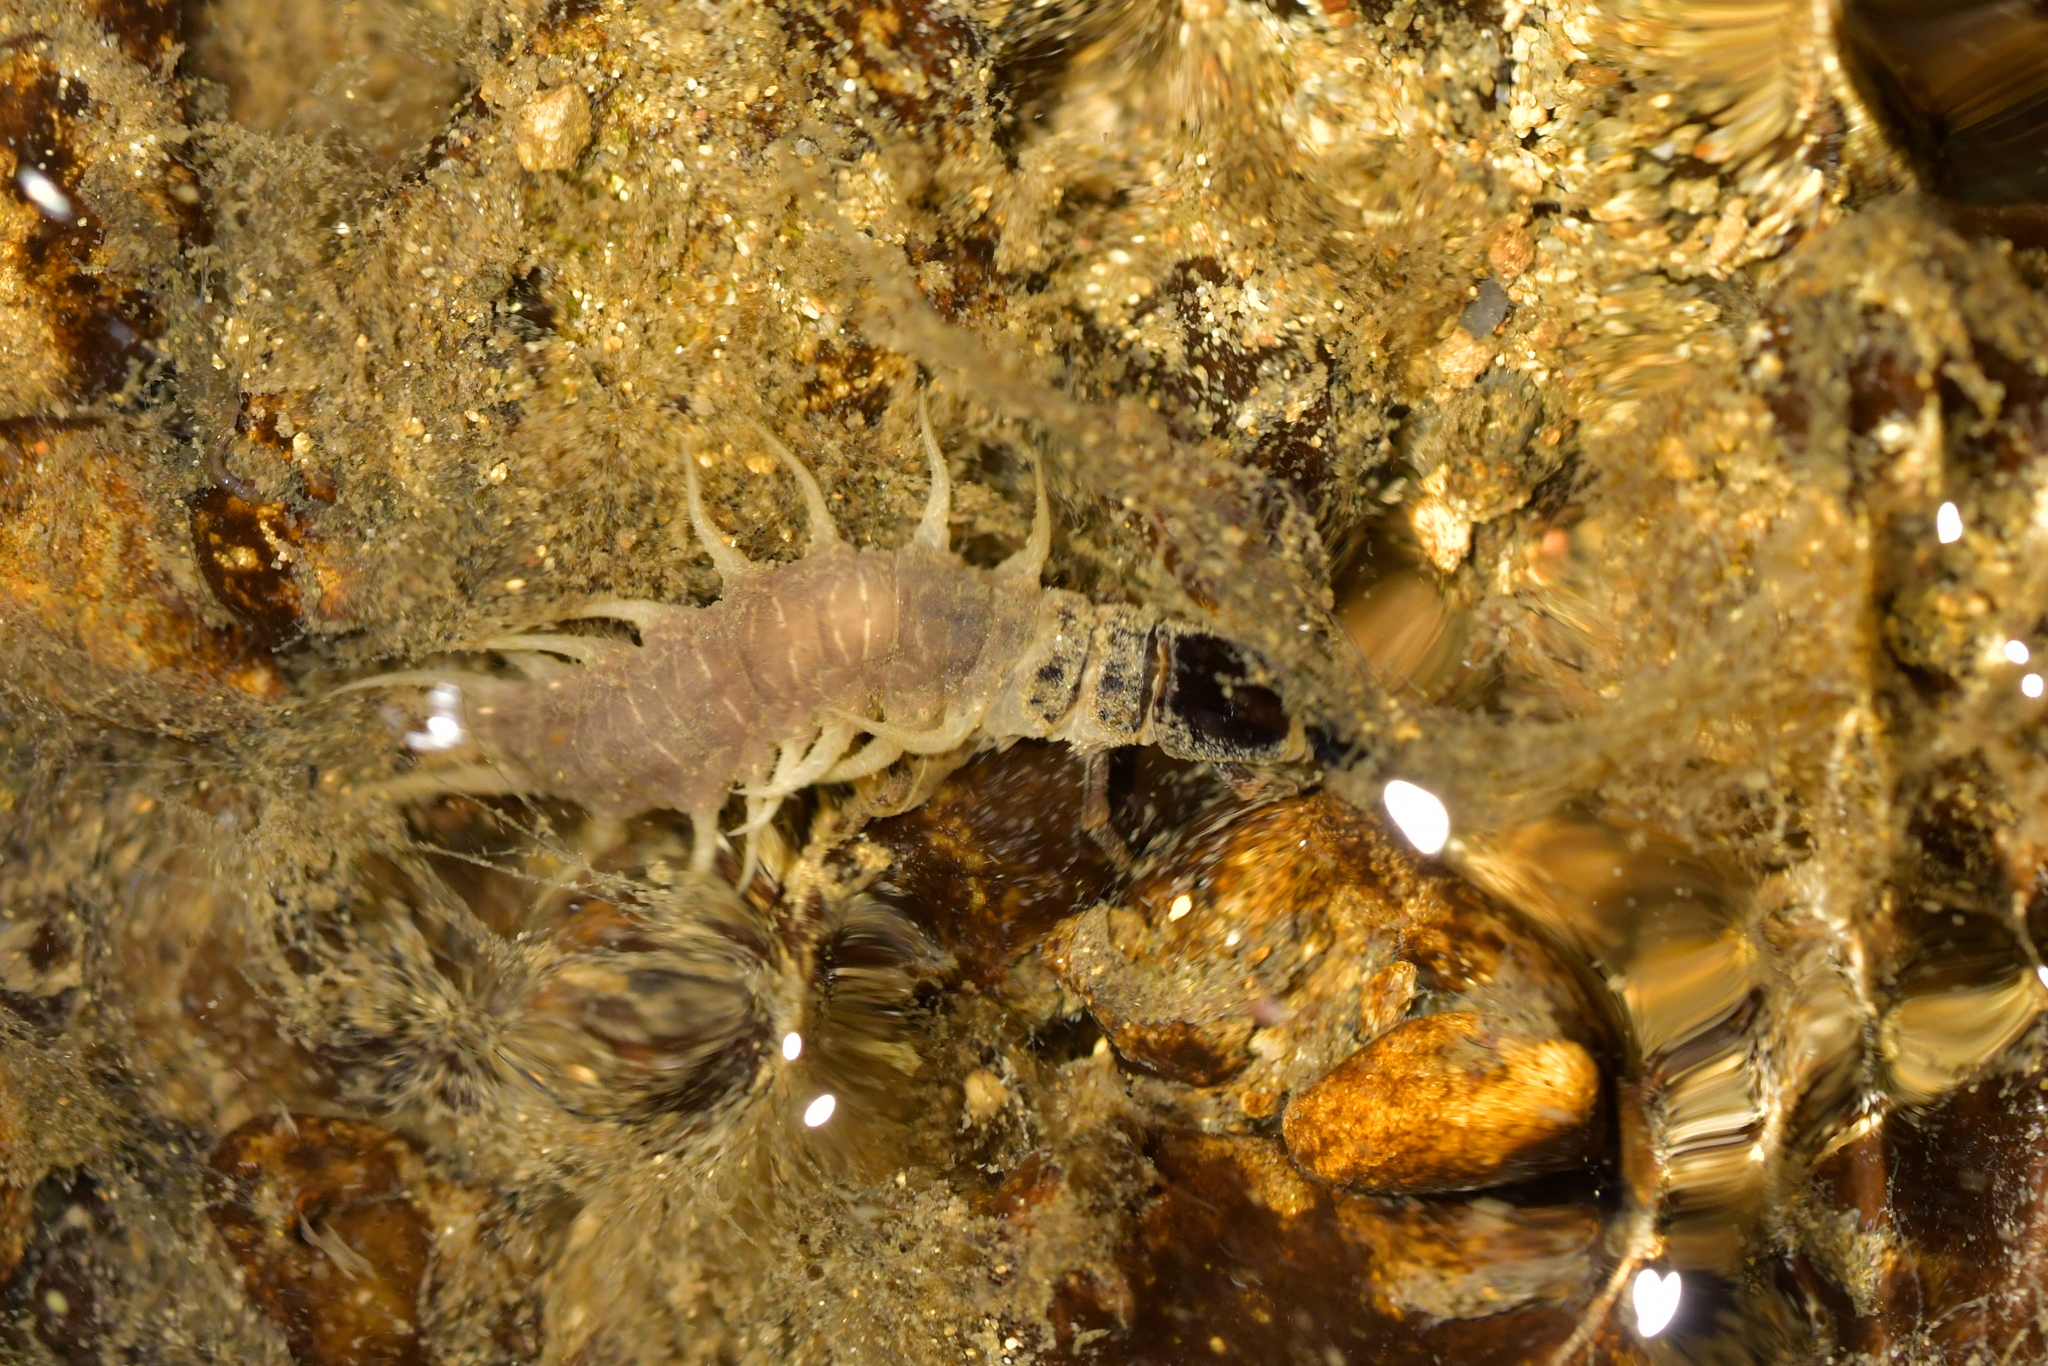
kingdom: Animalia
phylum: Arthropoda
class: Insecta
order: Megaloptera
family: Corydalidae
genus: Archichauliodes
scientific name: Archichauliodes diversus
